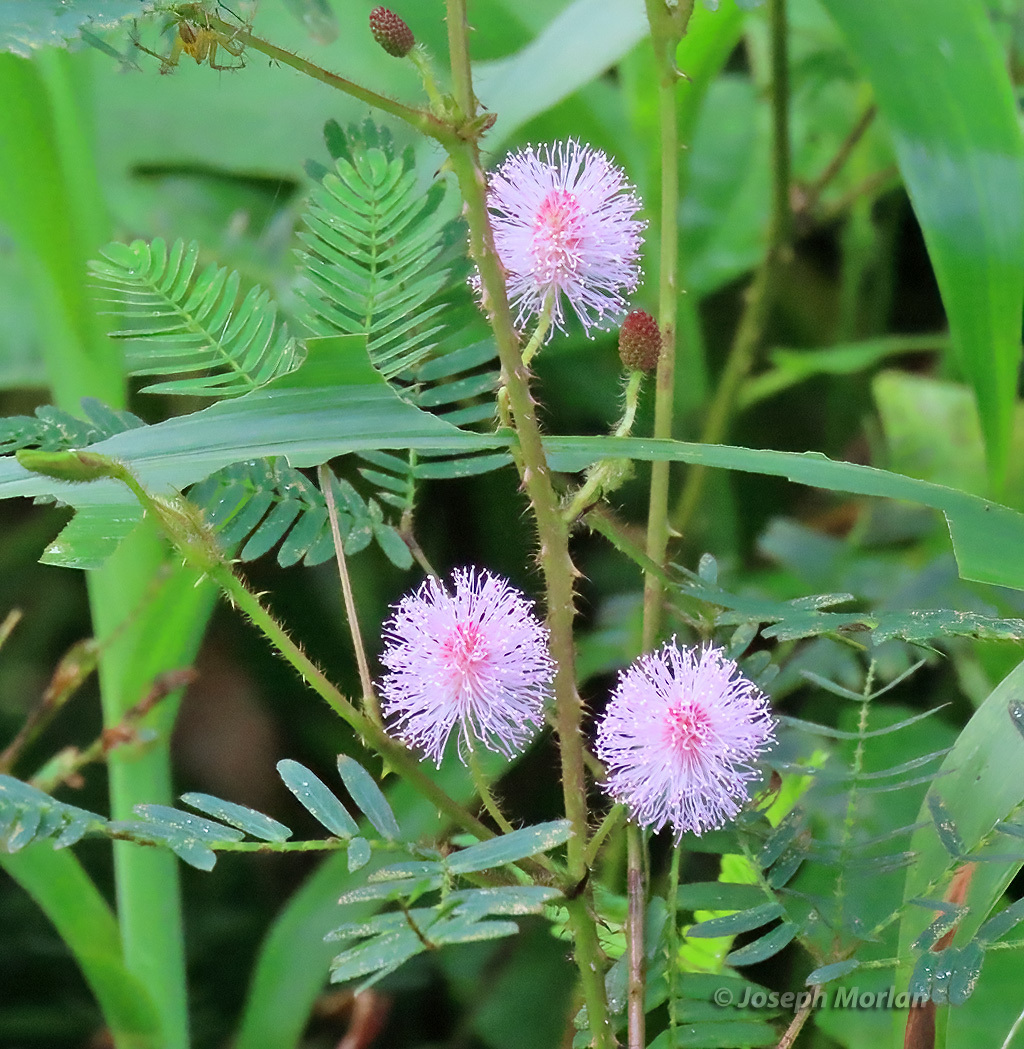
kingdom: Plantae
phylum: Tracheophyta
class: Magnoliopsida
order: Fabales
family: Fabaceae
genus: Mimosa
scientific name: Mimosa pudica
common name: Sensitive plant
